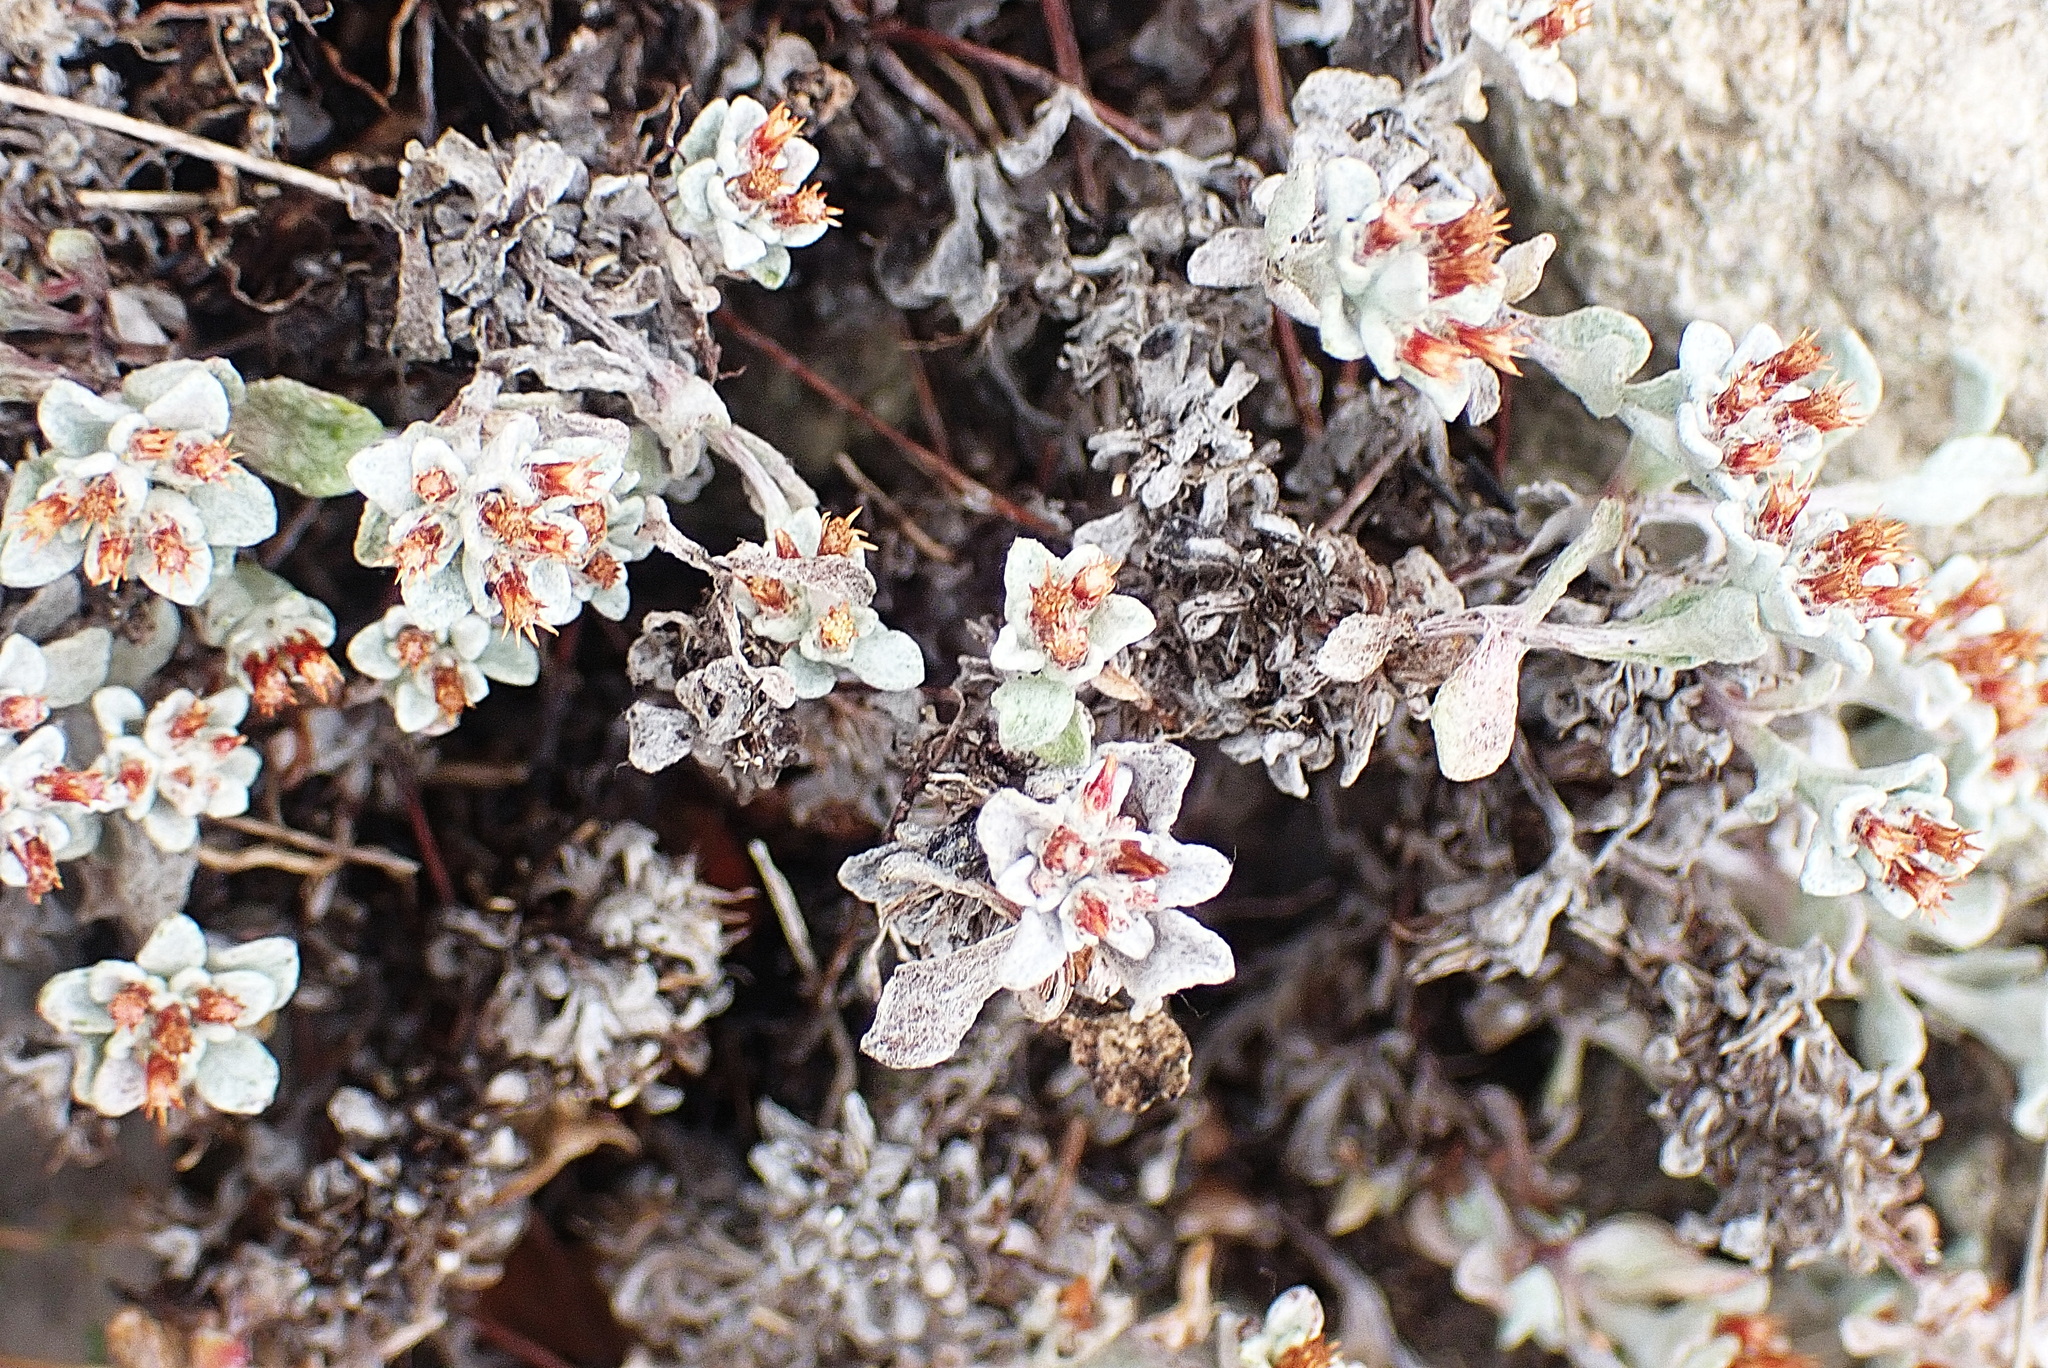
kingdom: Plantae
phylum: Tracheophyta
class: Magnoliopsida
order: Asterales
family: Asteraceae
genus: Helichrysum
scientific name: Helichrysum tinctum
